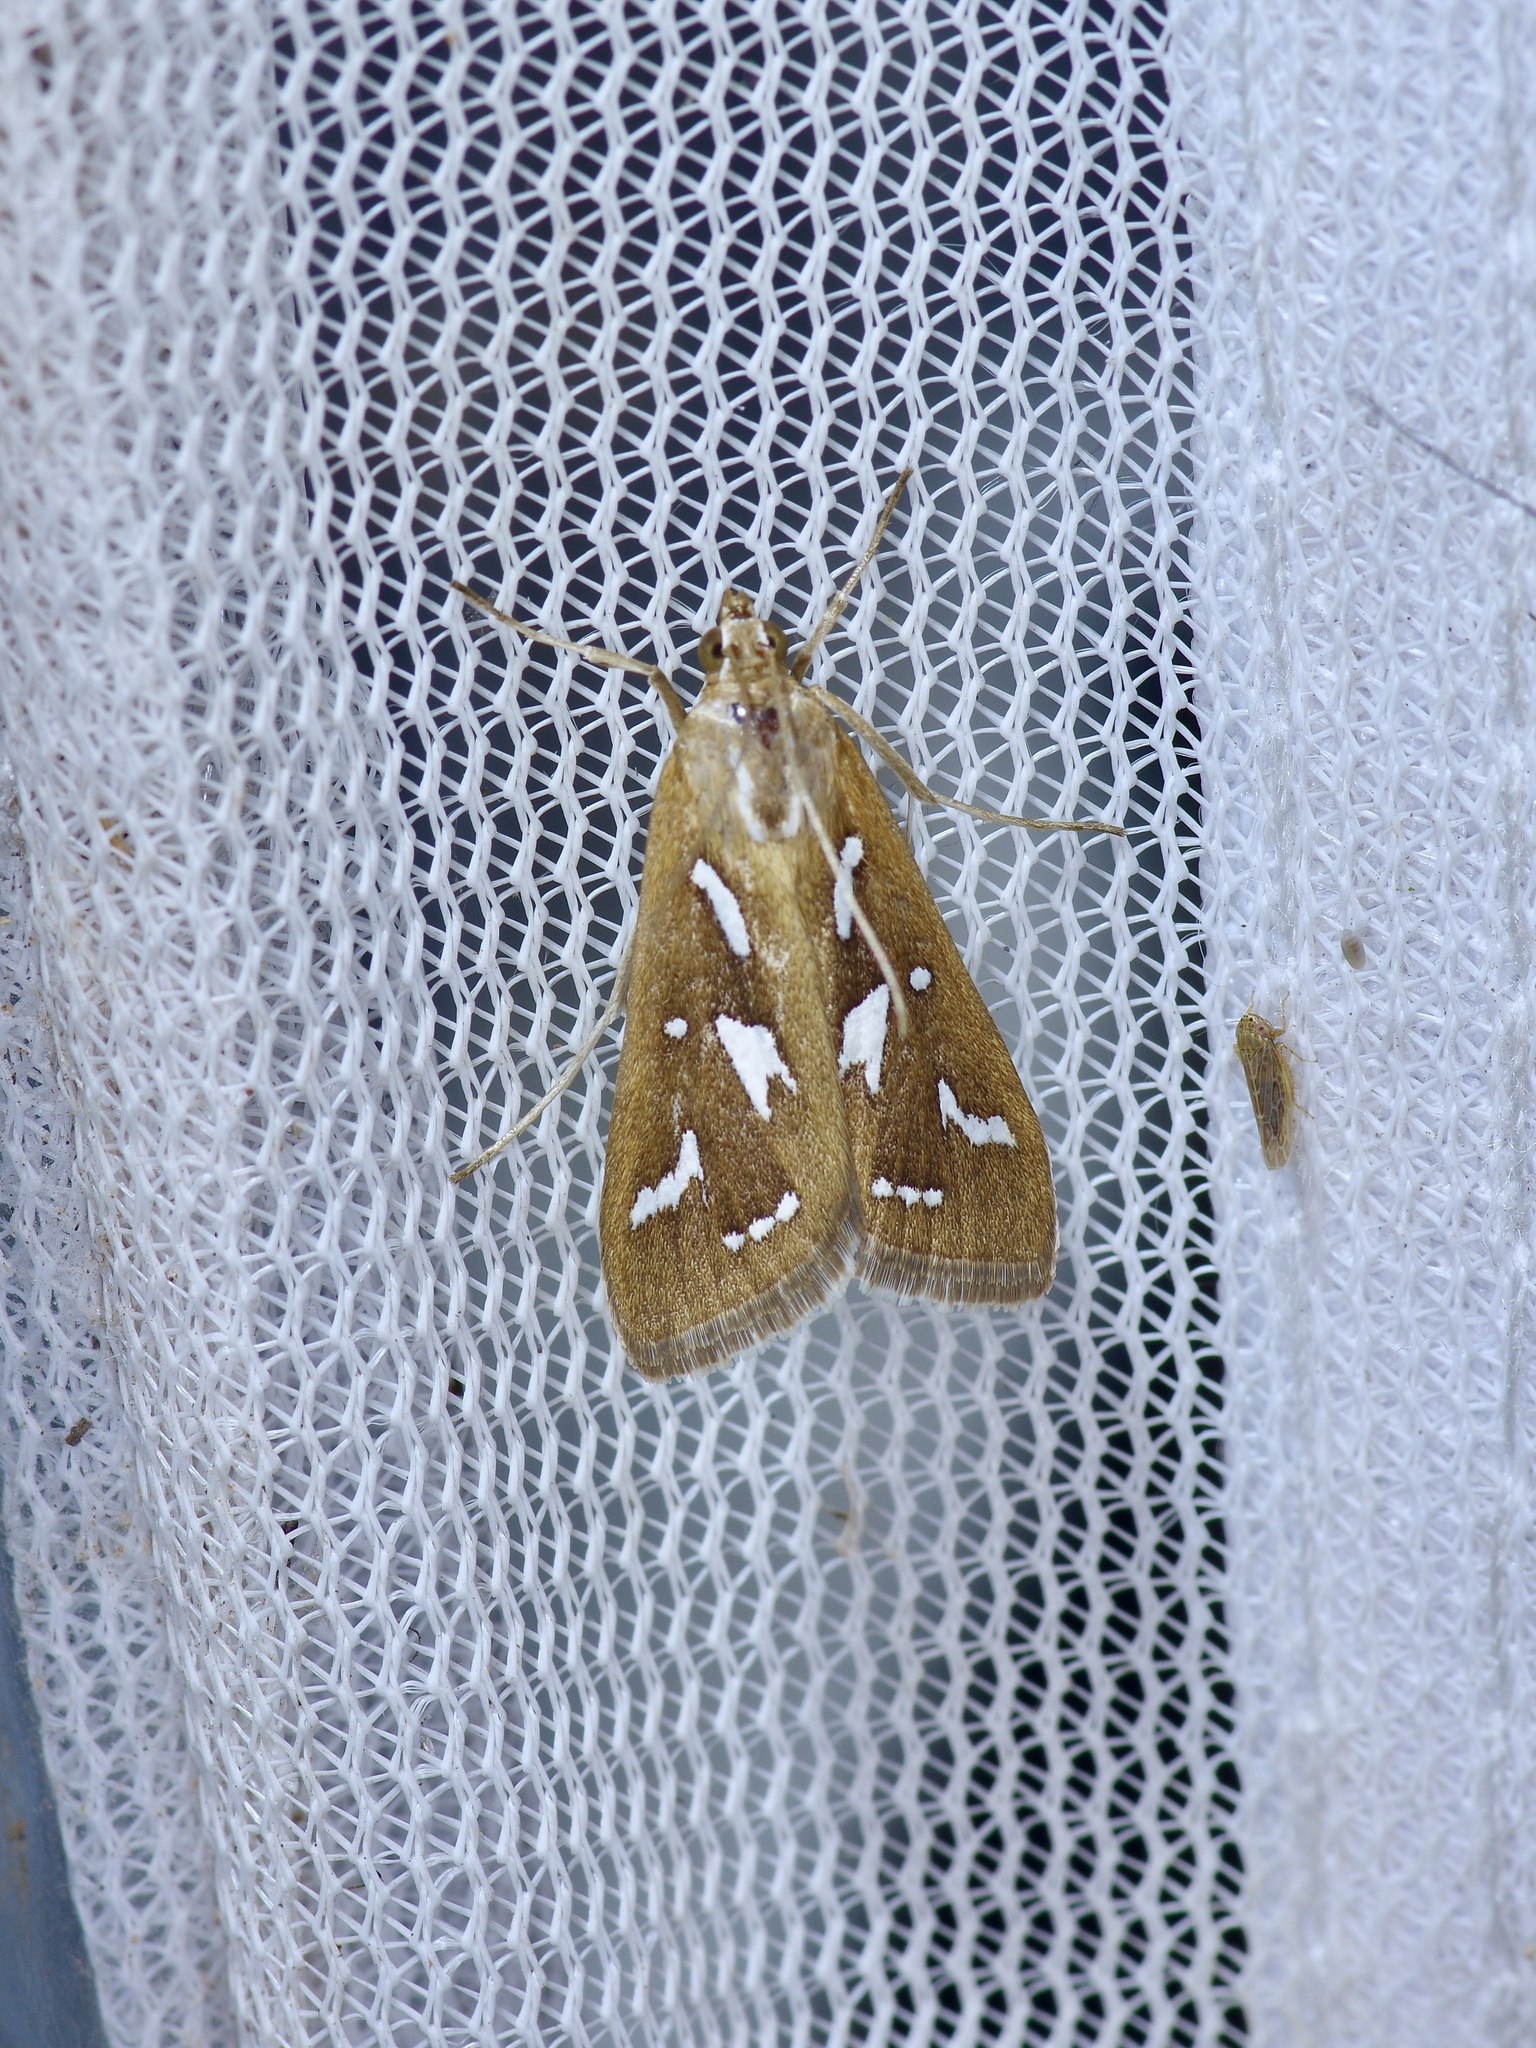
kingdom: Animalia
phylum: Arthropoda
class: Insecta
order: Lepidoptera
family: Crambidae
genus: Diastictis
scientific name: Diastictis fracturalis
